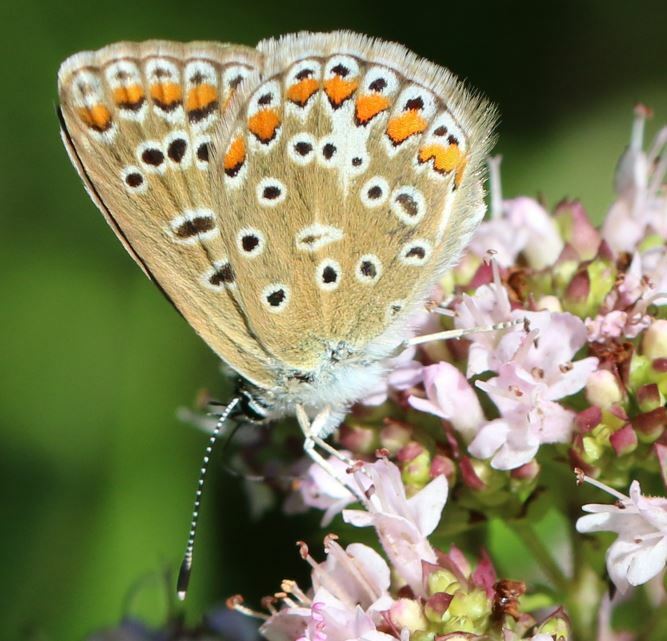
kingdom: Animalia
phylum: Arthropoda
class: Insecta
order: Lepidoptera
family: Lycaenidae
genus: Polyommatus
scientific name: Polyommatus icarus
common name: Common blue
